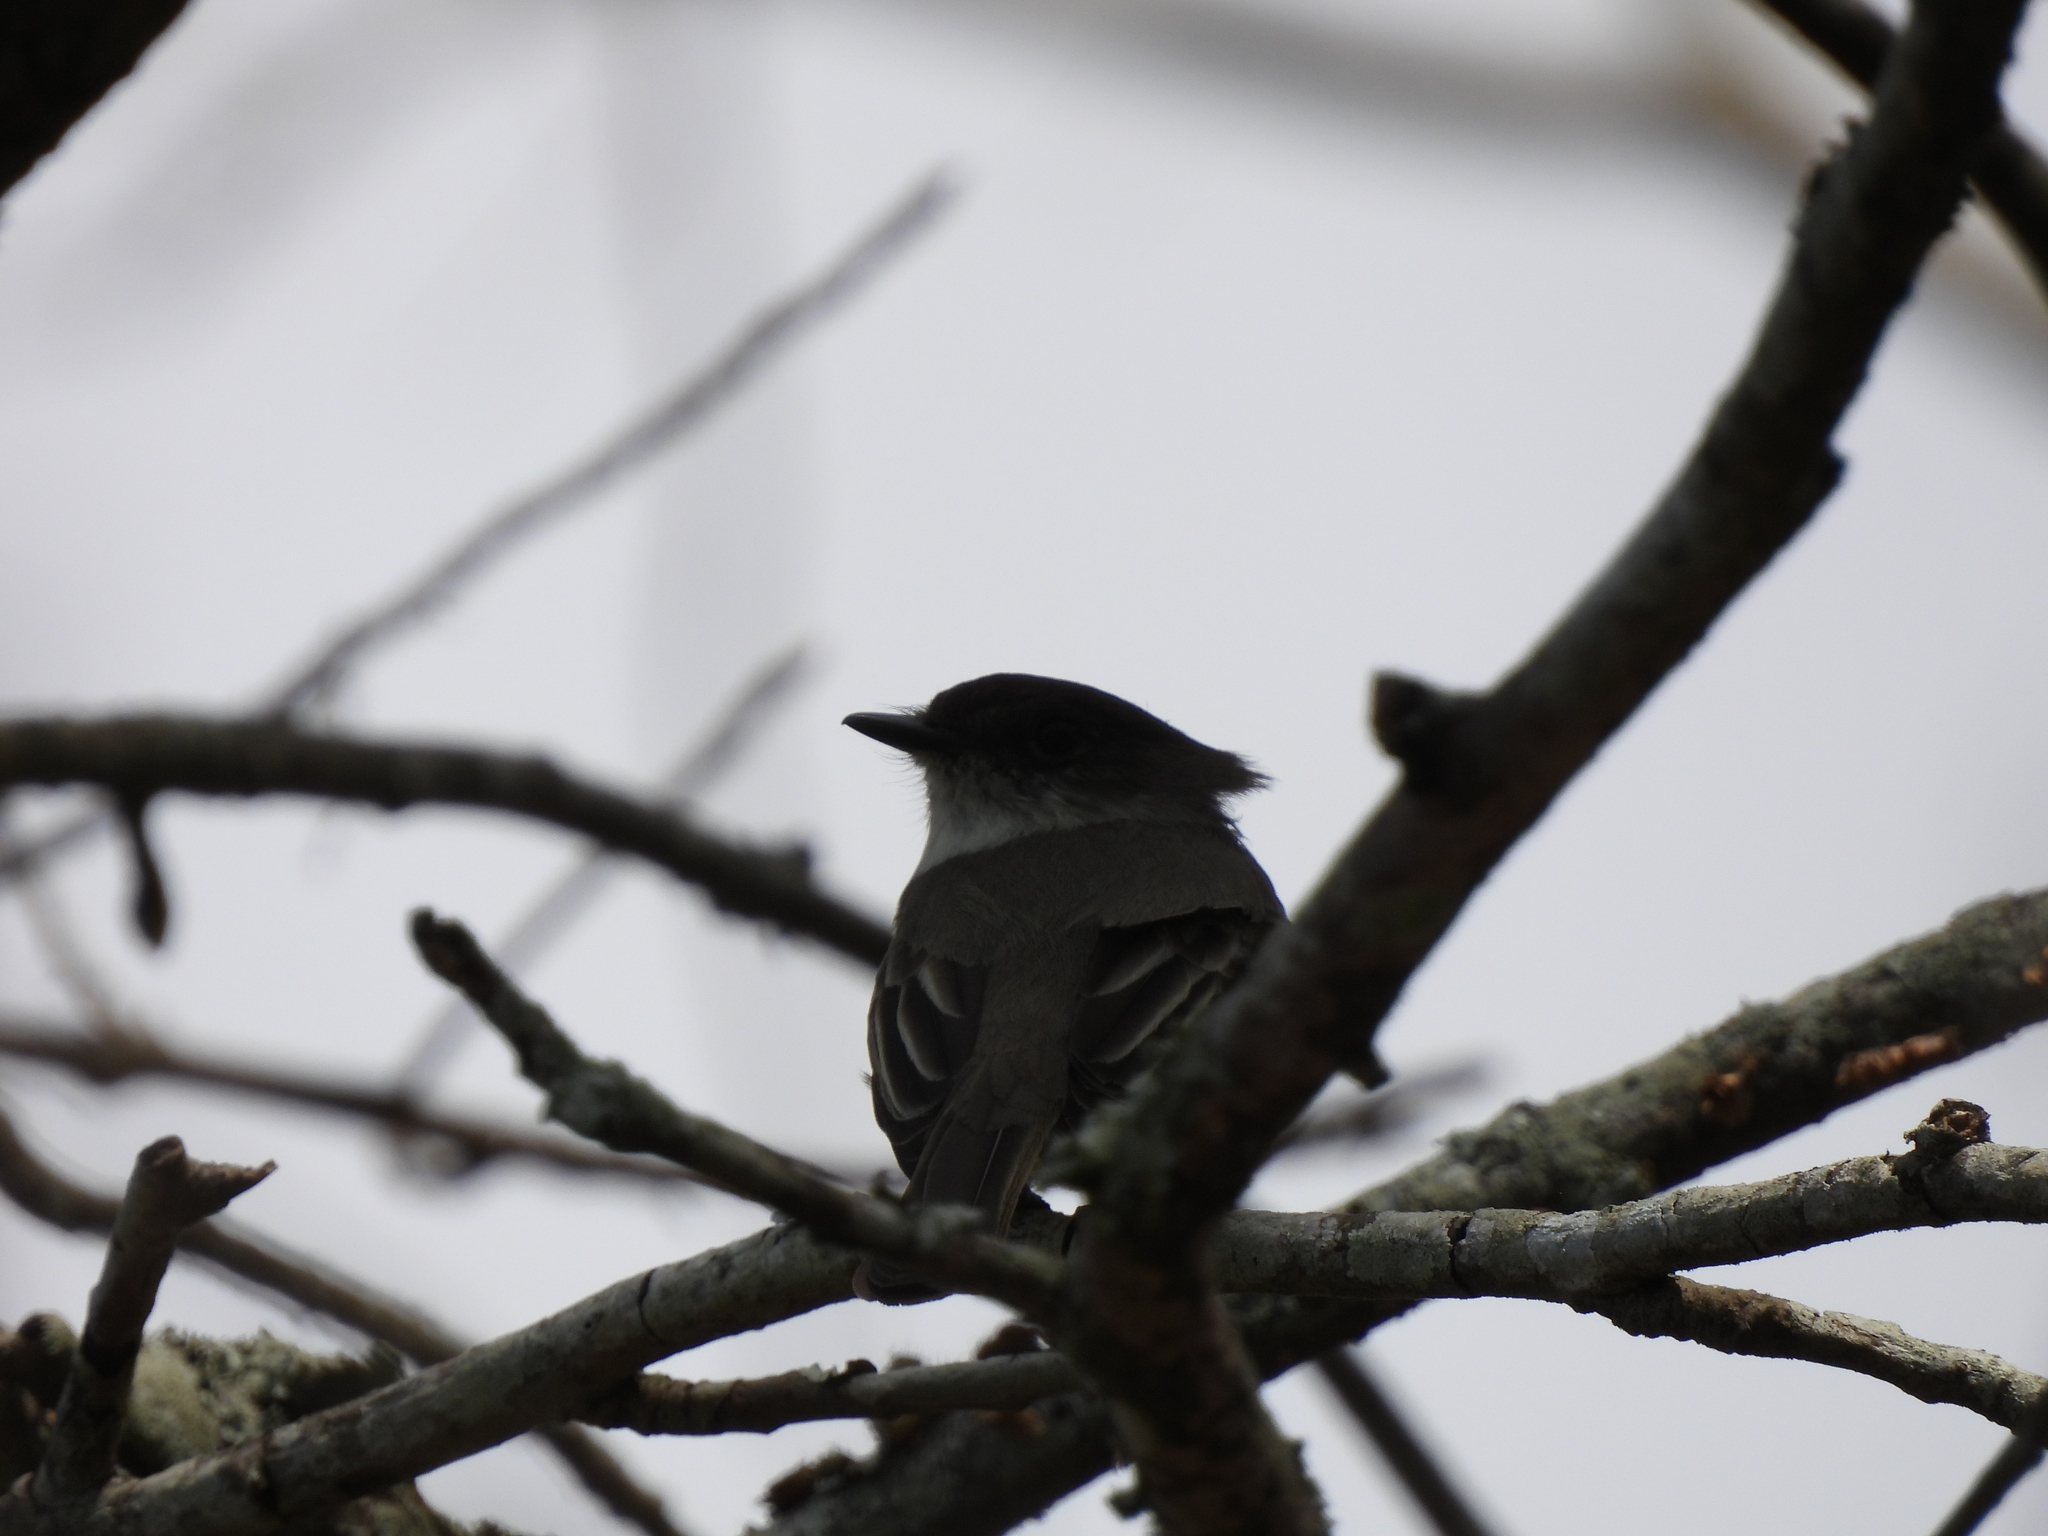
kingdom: Animalia
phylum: Chordata
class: Aves
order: Passeriformes
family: Tyrannidae
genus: Sayornis
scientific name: Sayornis phoebe
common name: Eastern phoebe
